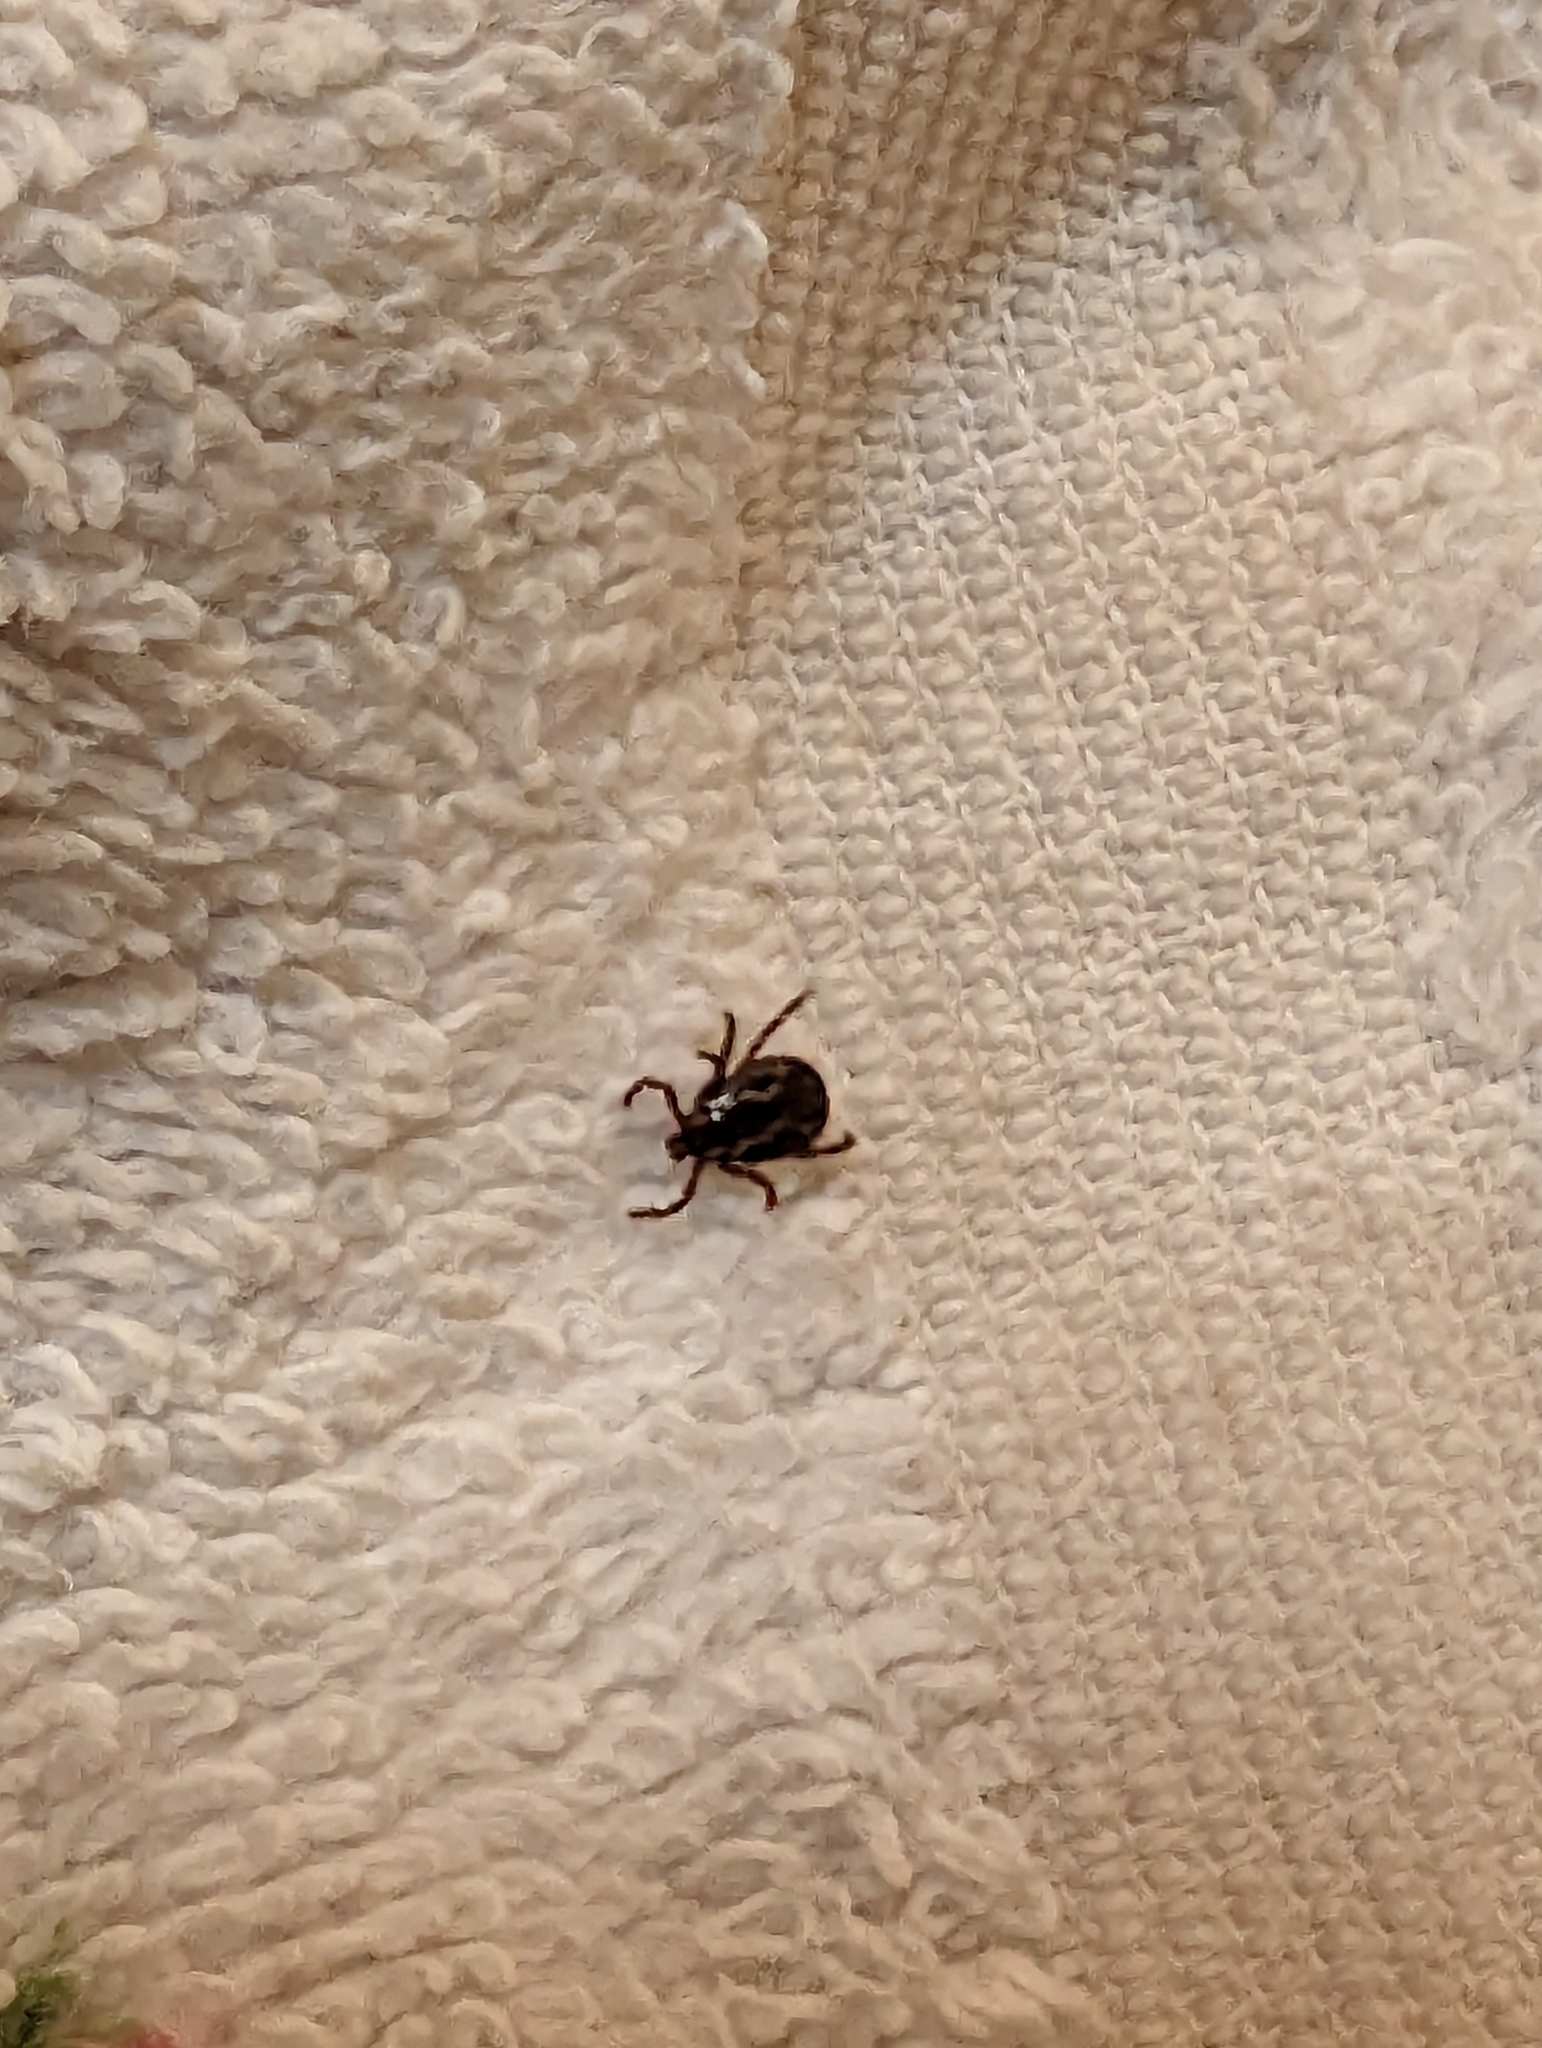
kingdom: Animalia
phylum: Arthropoda
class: Arachnida
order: Ixodida
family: Ixodidae
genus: Dermacentor
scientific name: Dermacentor variabilis
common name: American dog tick
